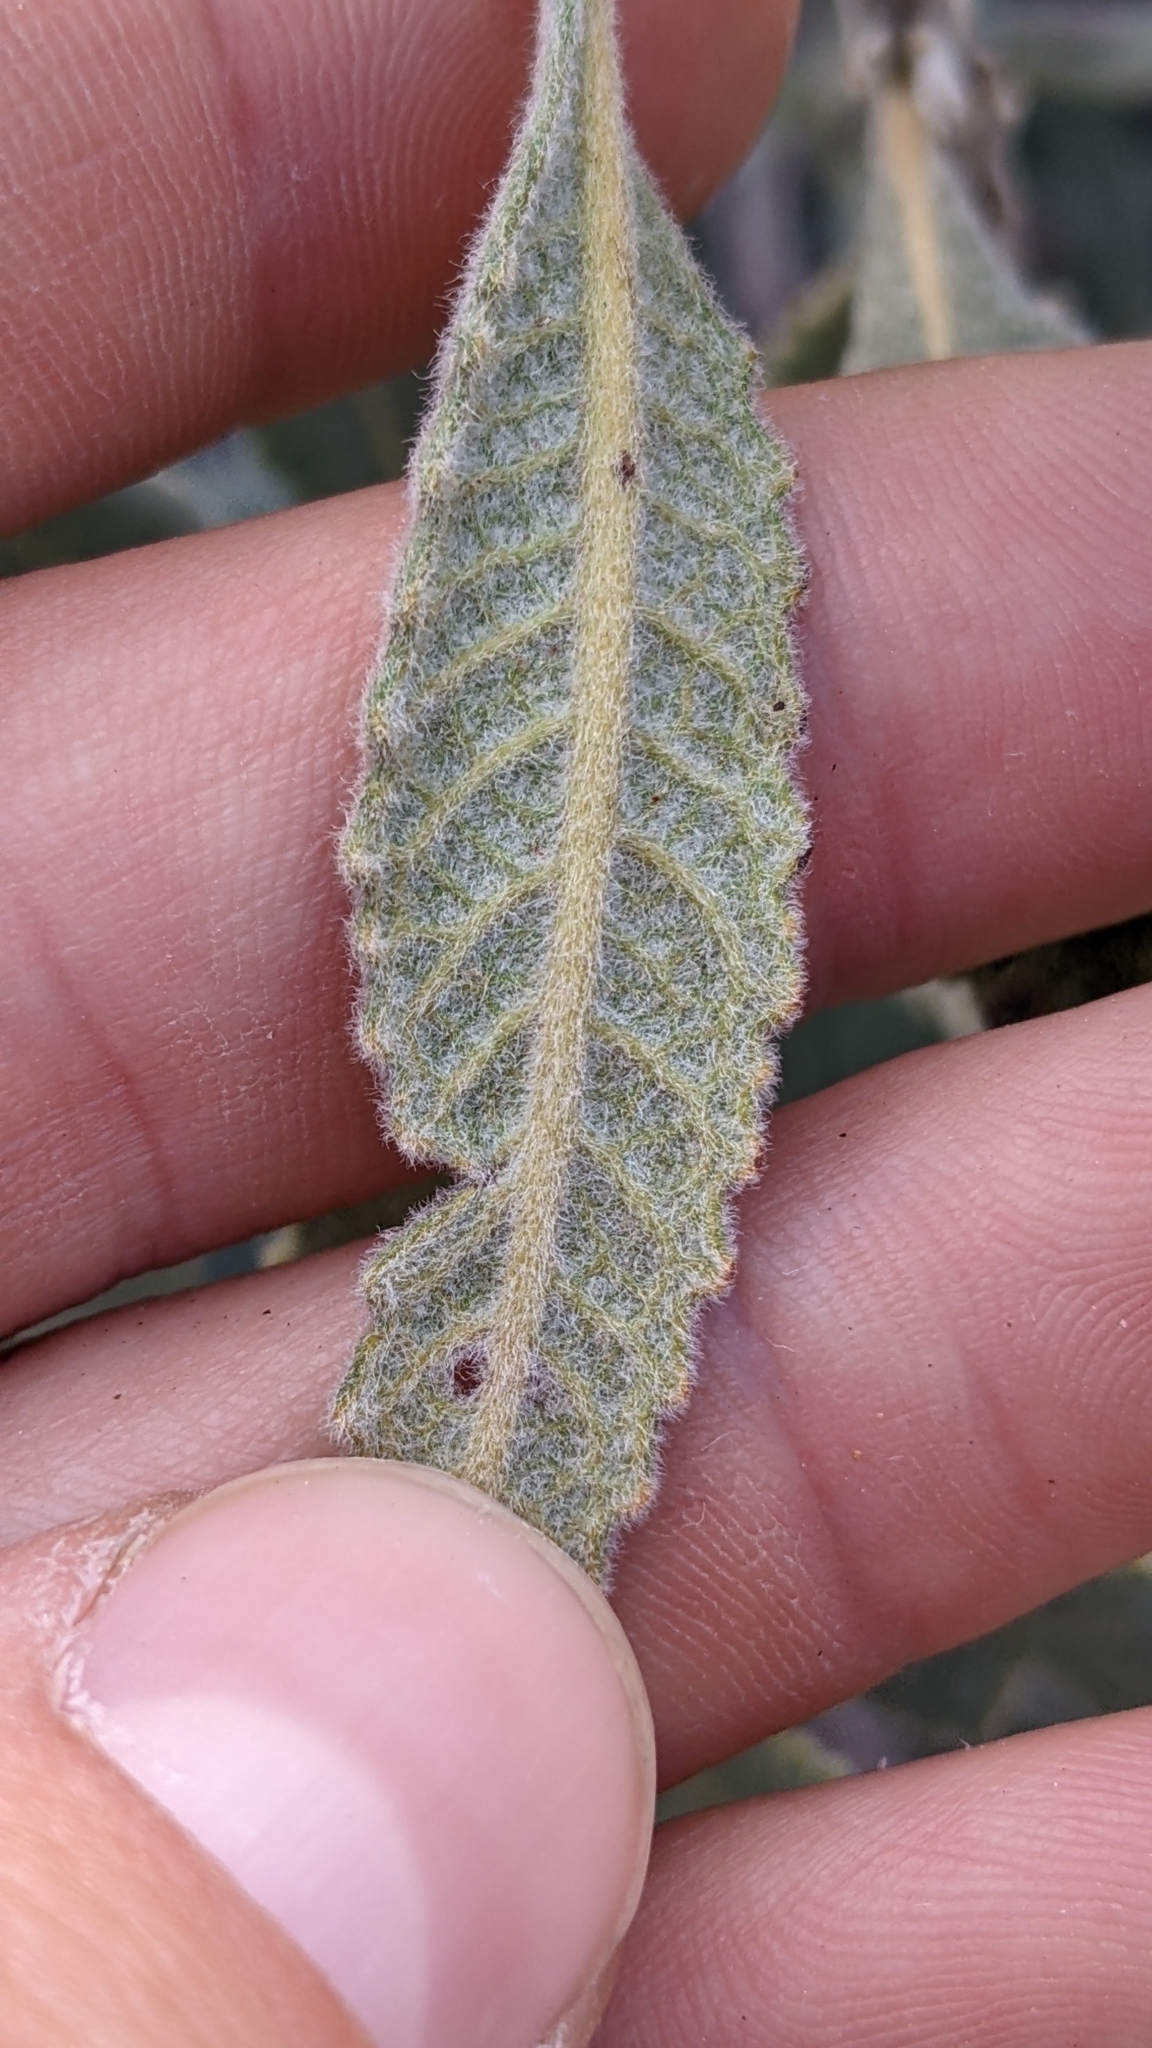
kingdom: Plantae
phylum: Tracheophyta
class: Magnoliopsida
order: Boraginales
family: Namaceae
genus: Eriodictyon
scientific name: Eriodictyon crassifolium
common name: Thick-leaf yerba-santa
